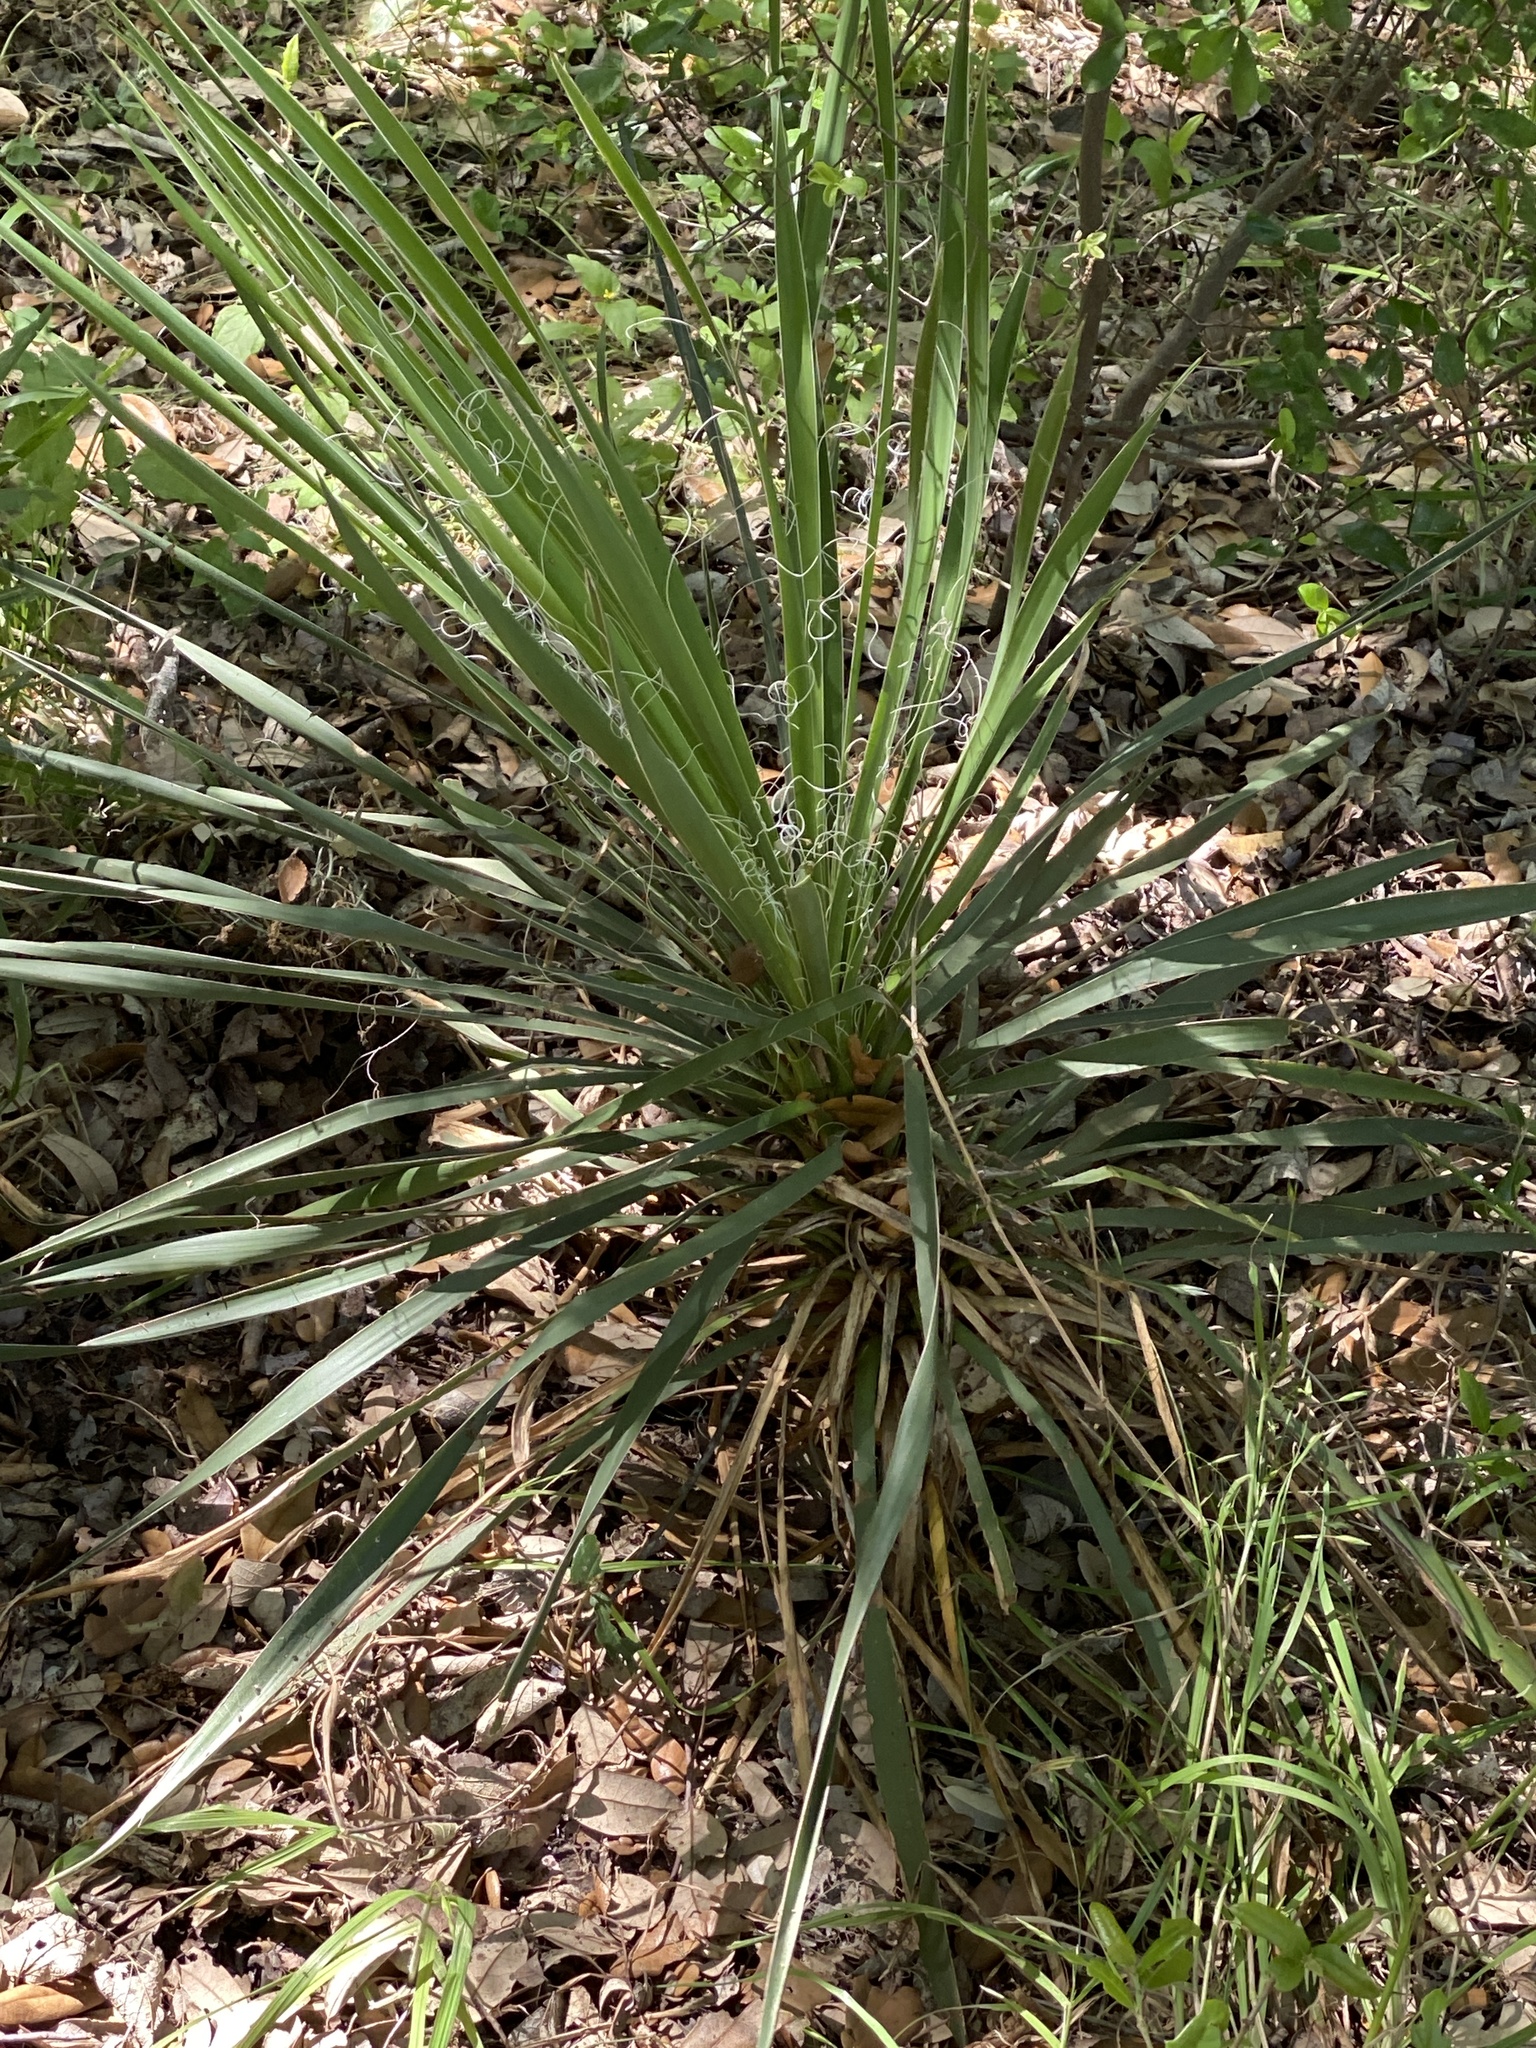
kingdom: Plantae
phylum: Tracheophyta
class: Liliopsida
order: Asparagales
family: Asparagaceae
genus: Yucca
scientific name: Yucca constricta
